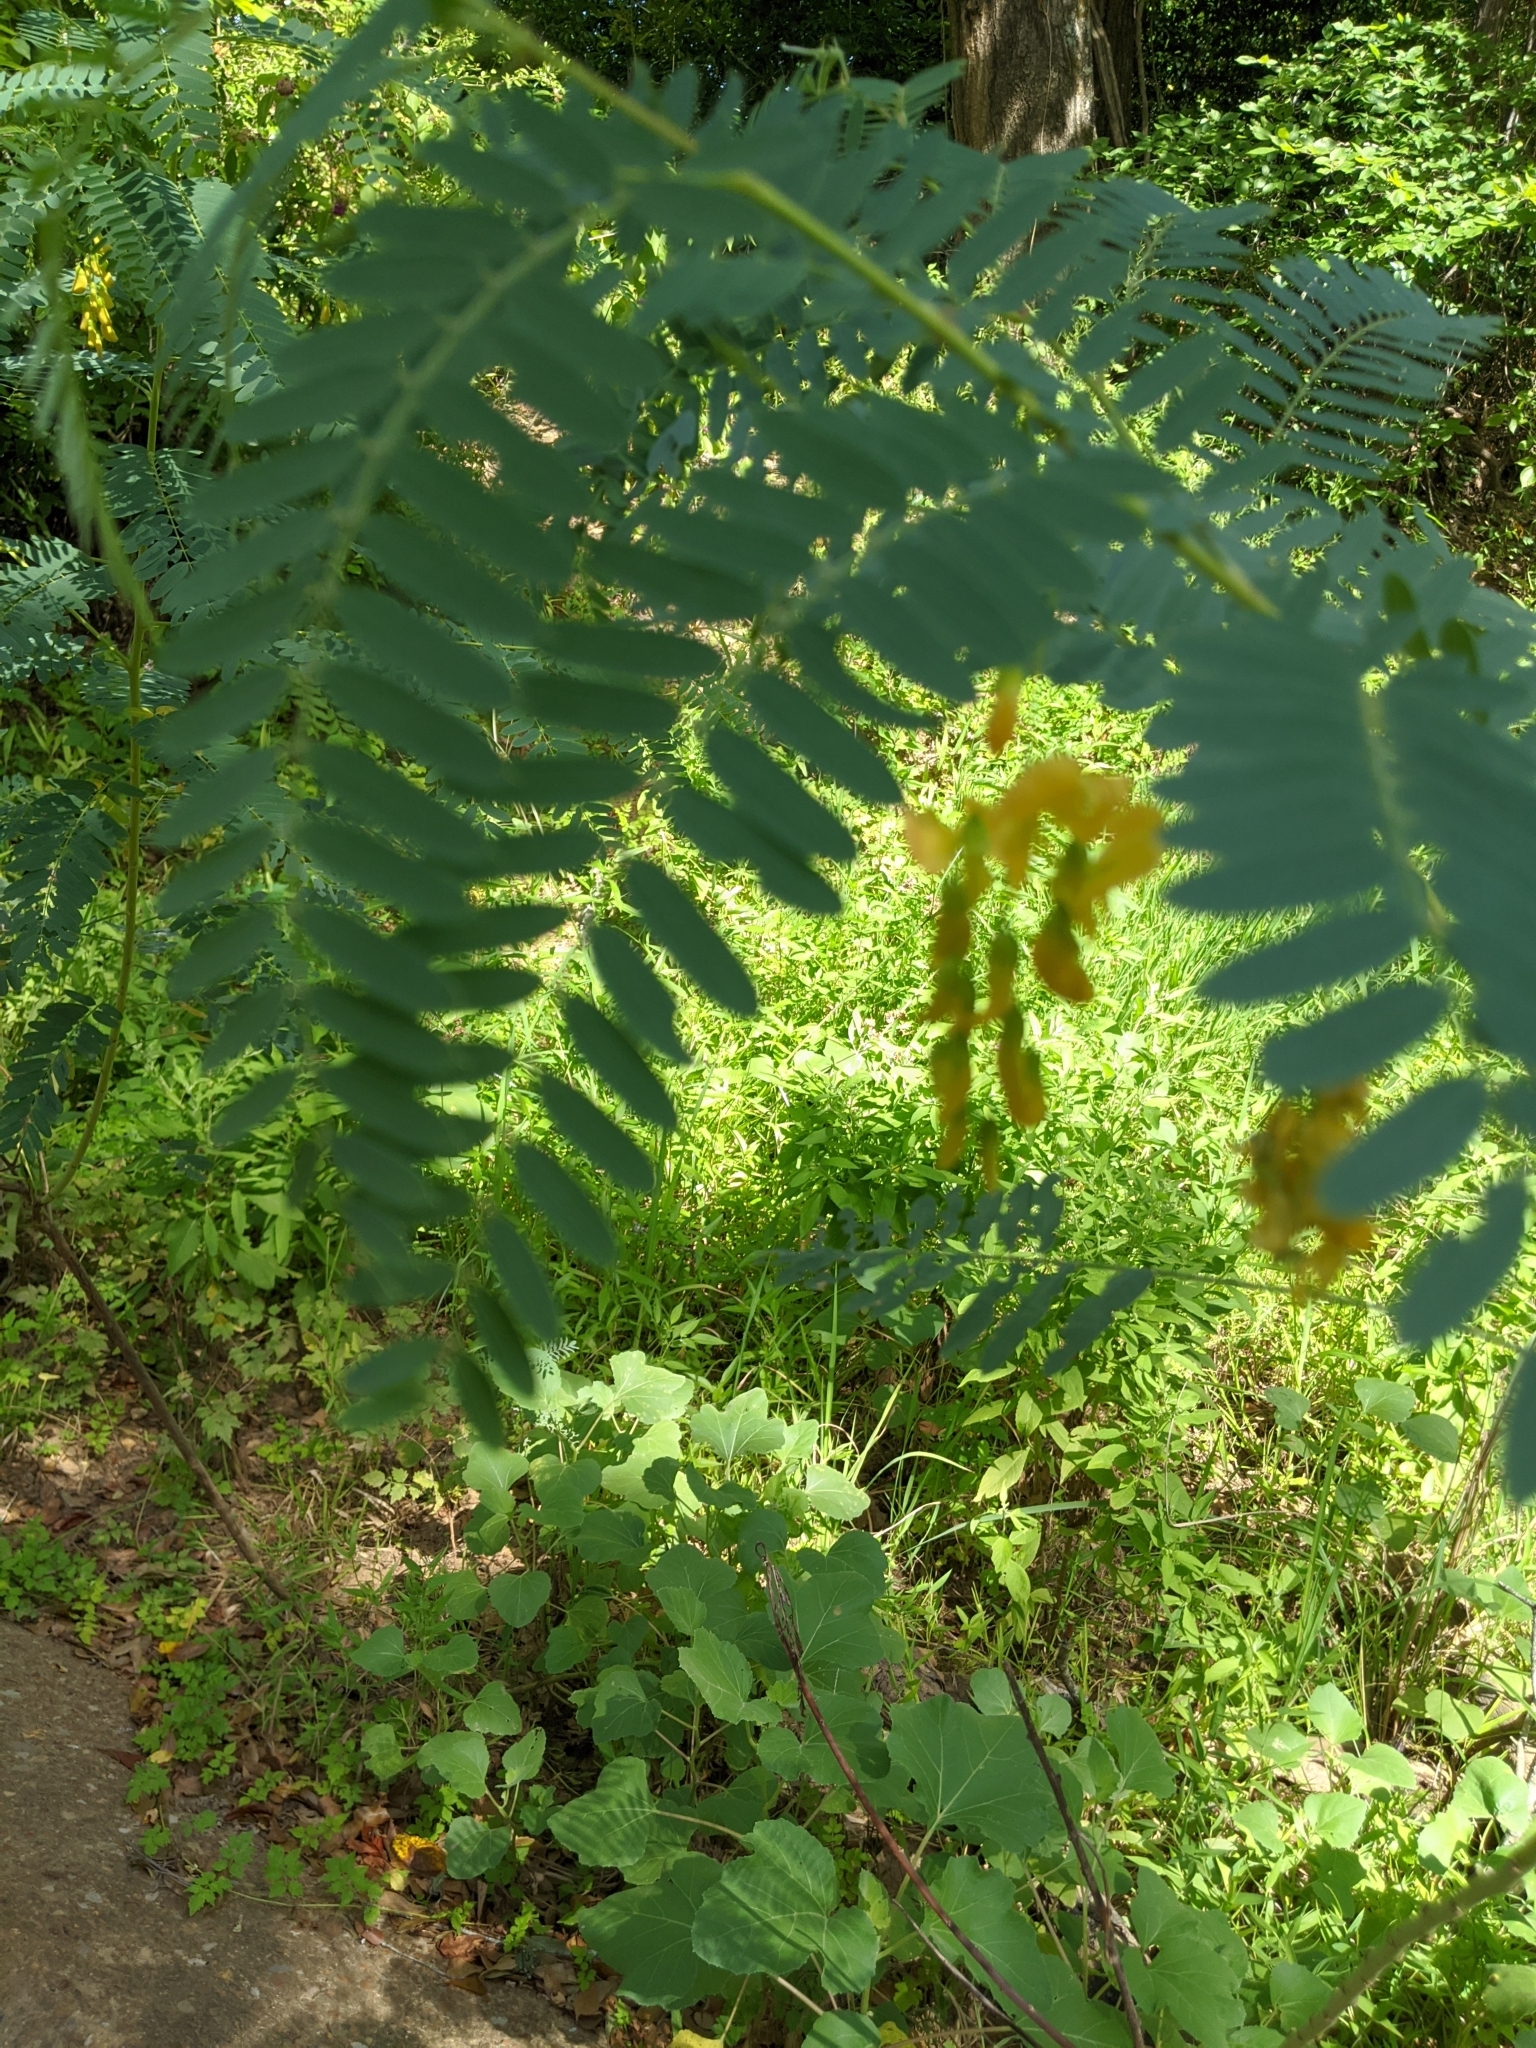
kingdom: Plantae
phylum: Tracheophyta
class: Magnoliopsida
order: Fabales
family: Fabaceae
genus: Sesbania
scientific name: Sesbania drummondii
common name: Poison-bean
